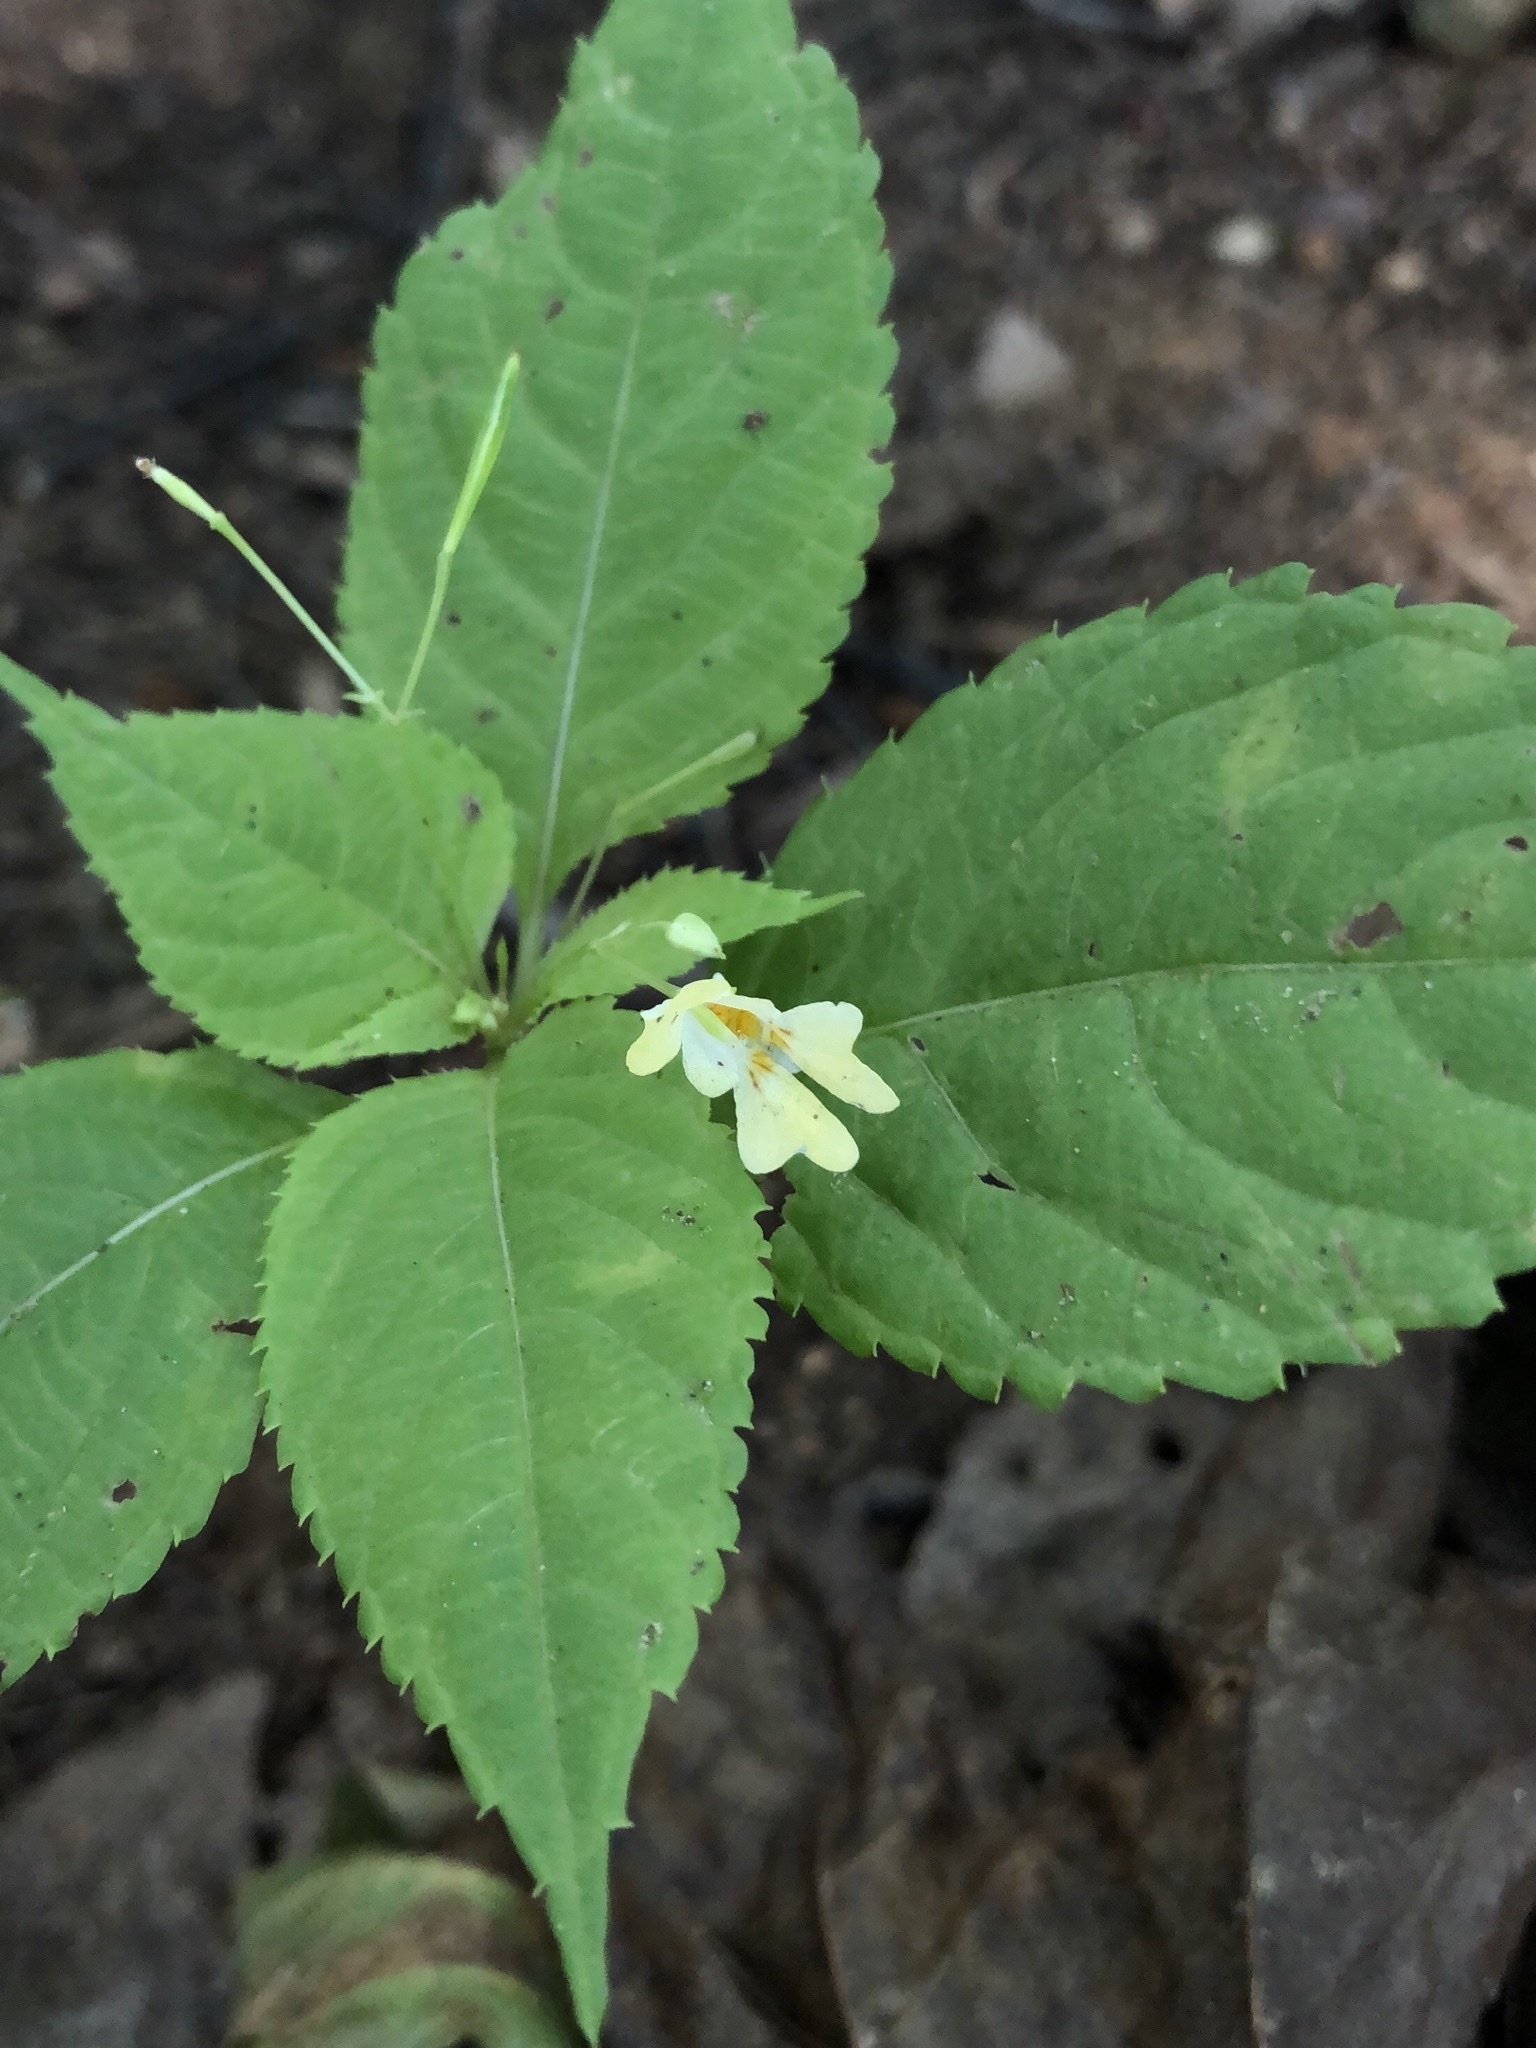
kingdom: Plantae
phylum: Tracheophyta
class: Magnoliopsida
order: Ericales
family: Balsaminaceae
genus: Impatiens
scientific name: Impatiens parviflora
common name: Small balsam
